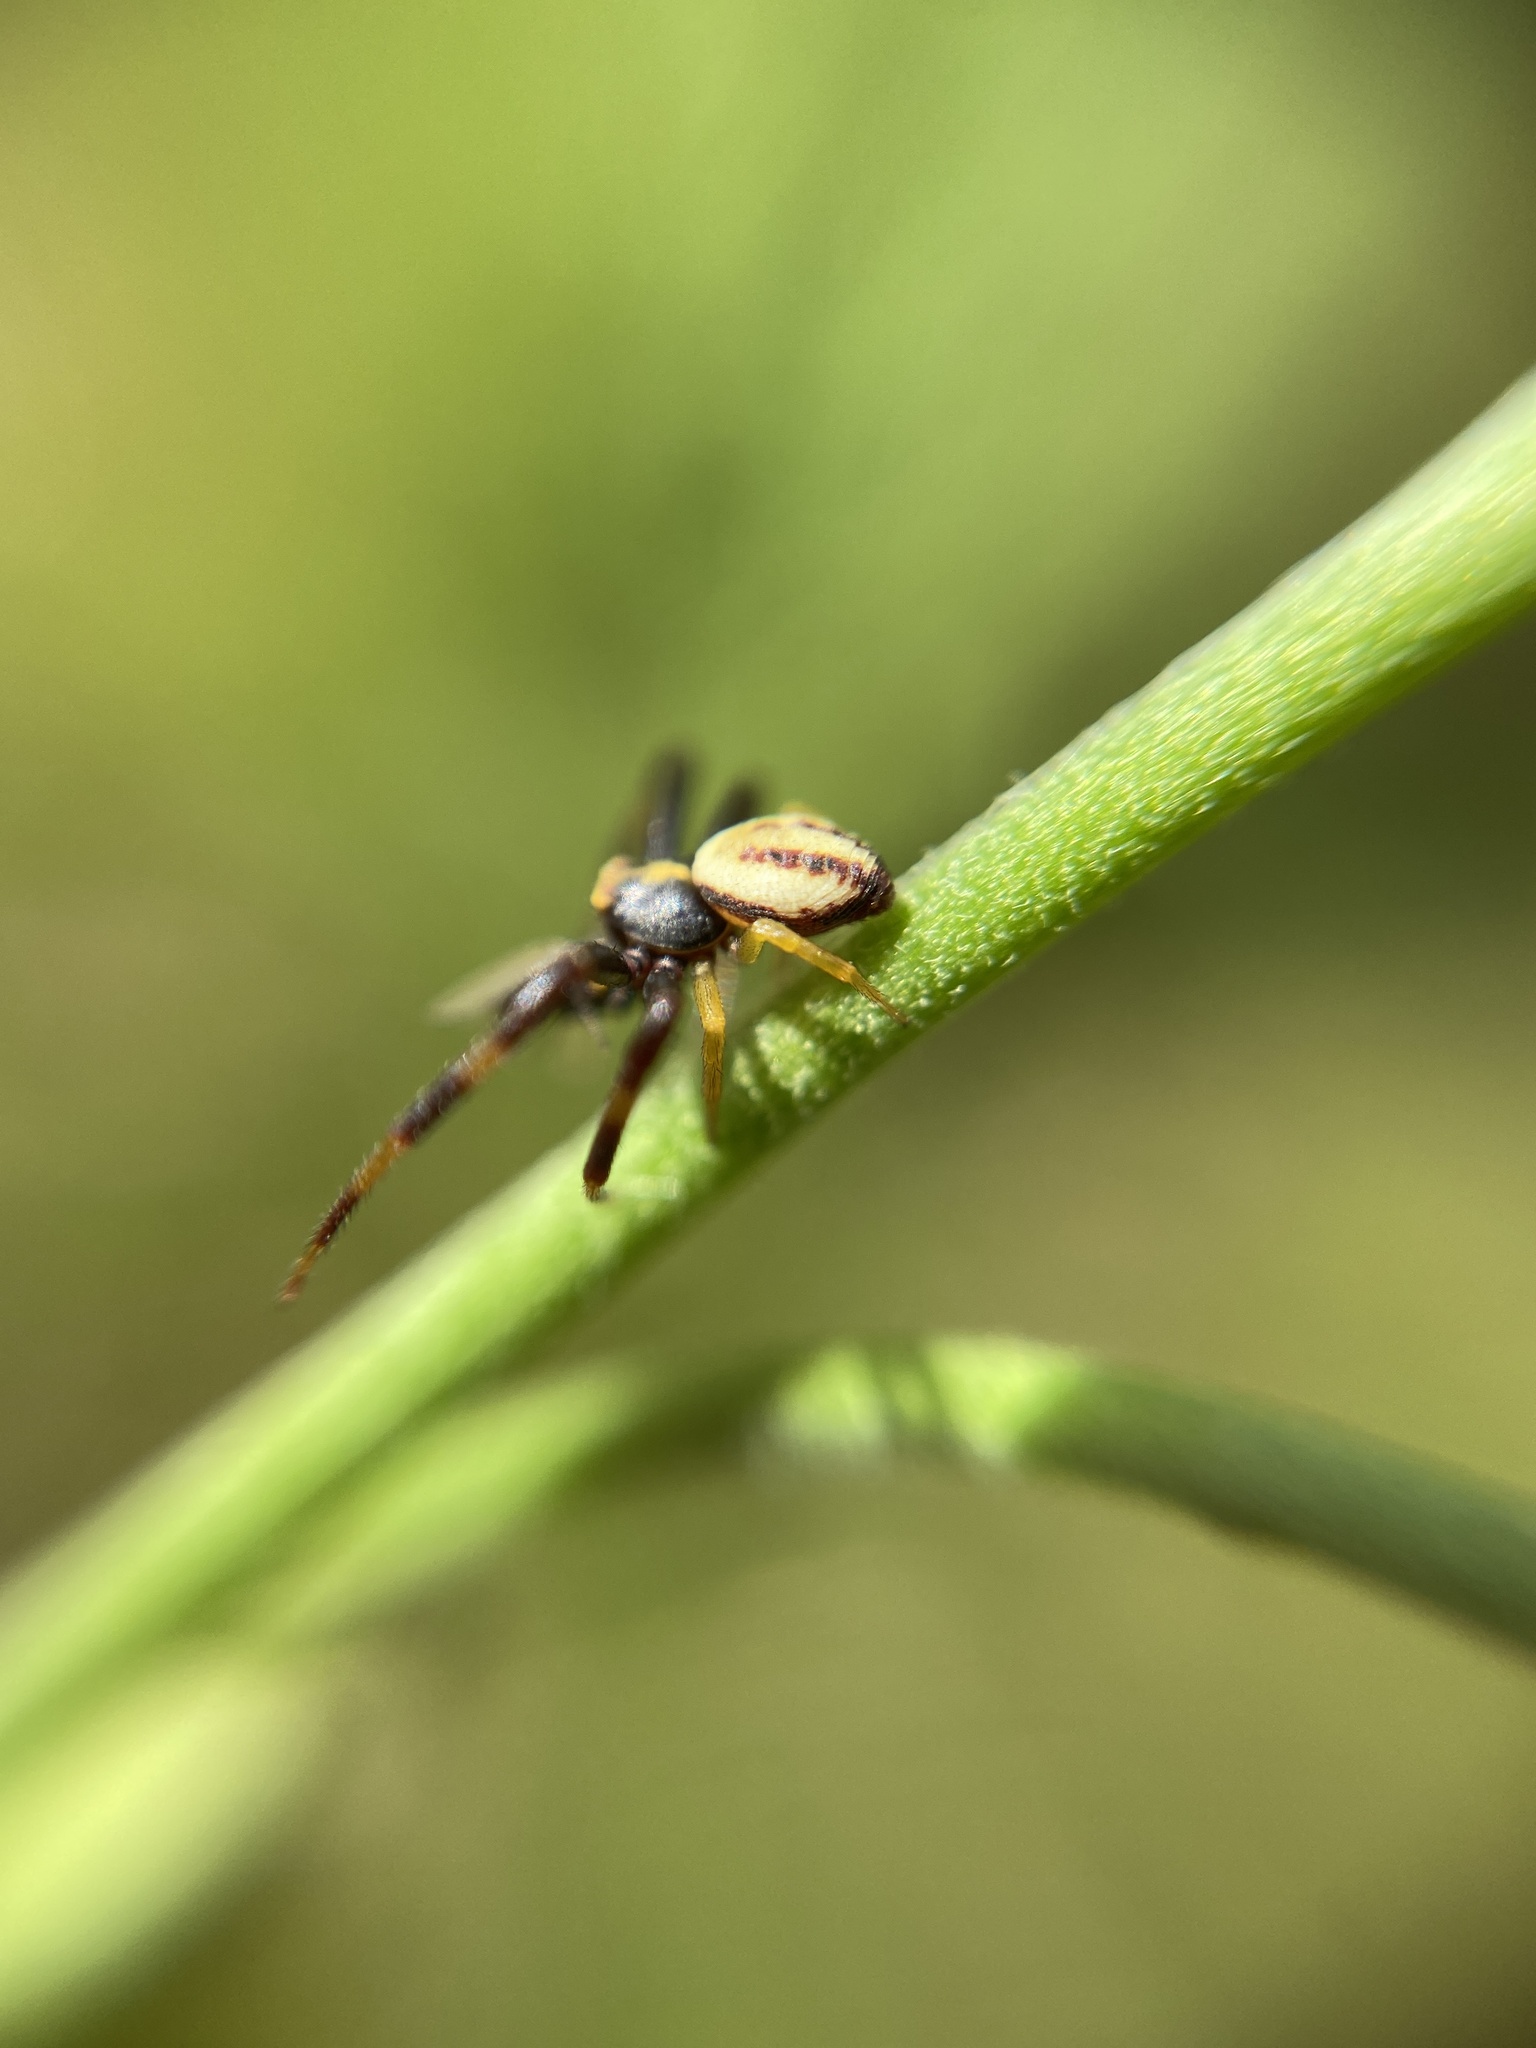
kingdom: Animalia
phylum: Arthropoda
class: Arachnida
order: Araneae
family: Thomisidae
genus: Misumena
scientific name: Misumena vatia
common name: Goldenrod crab spider
